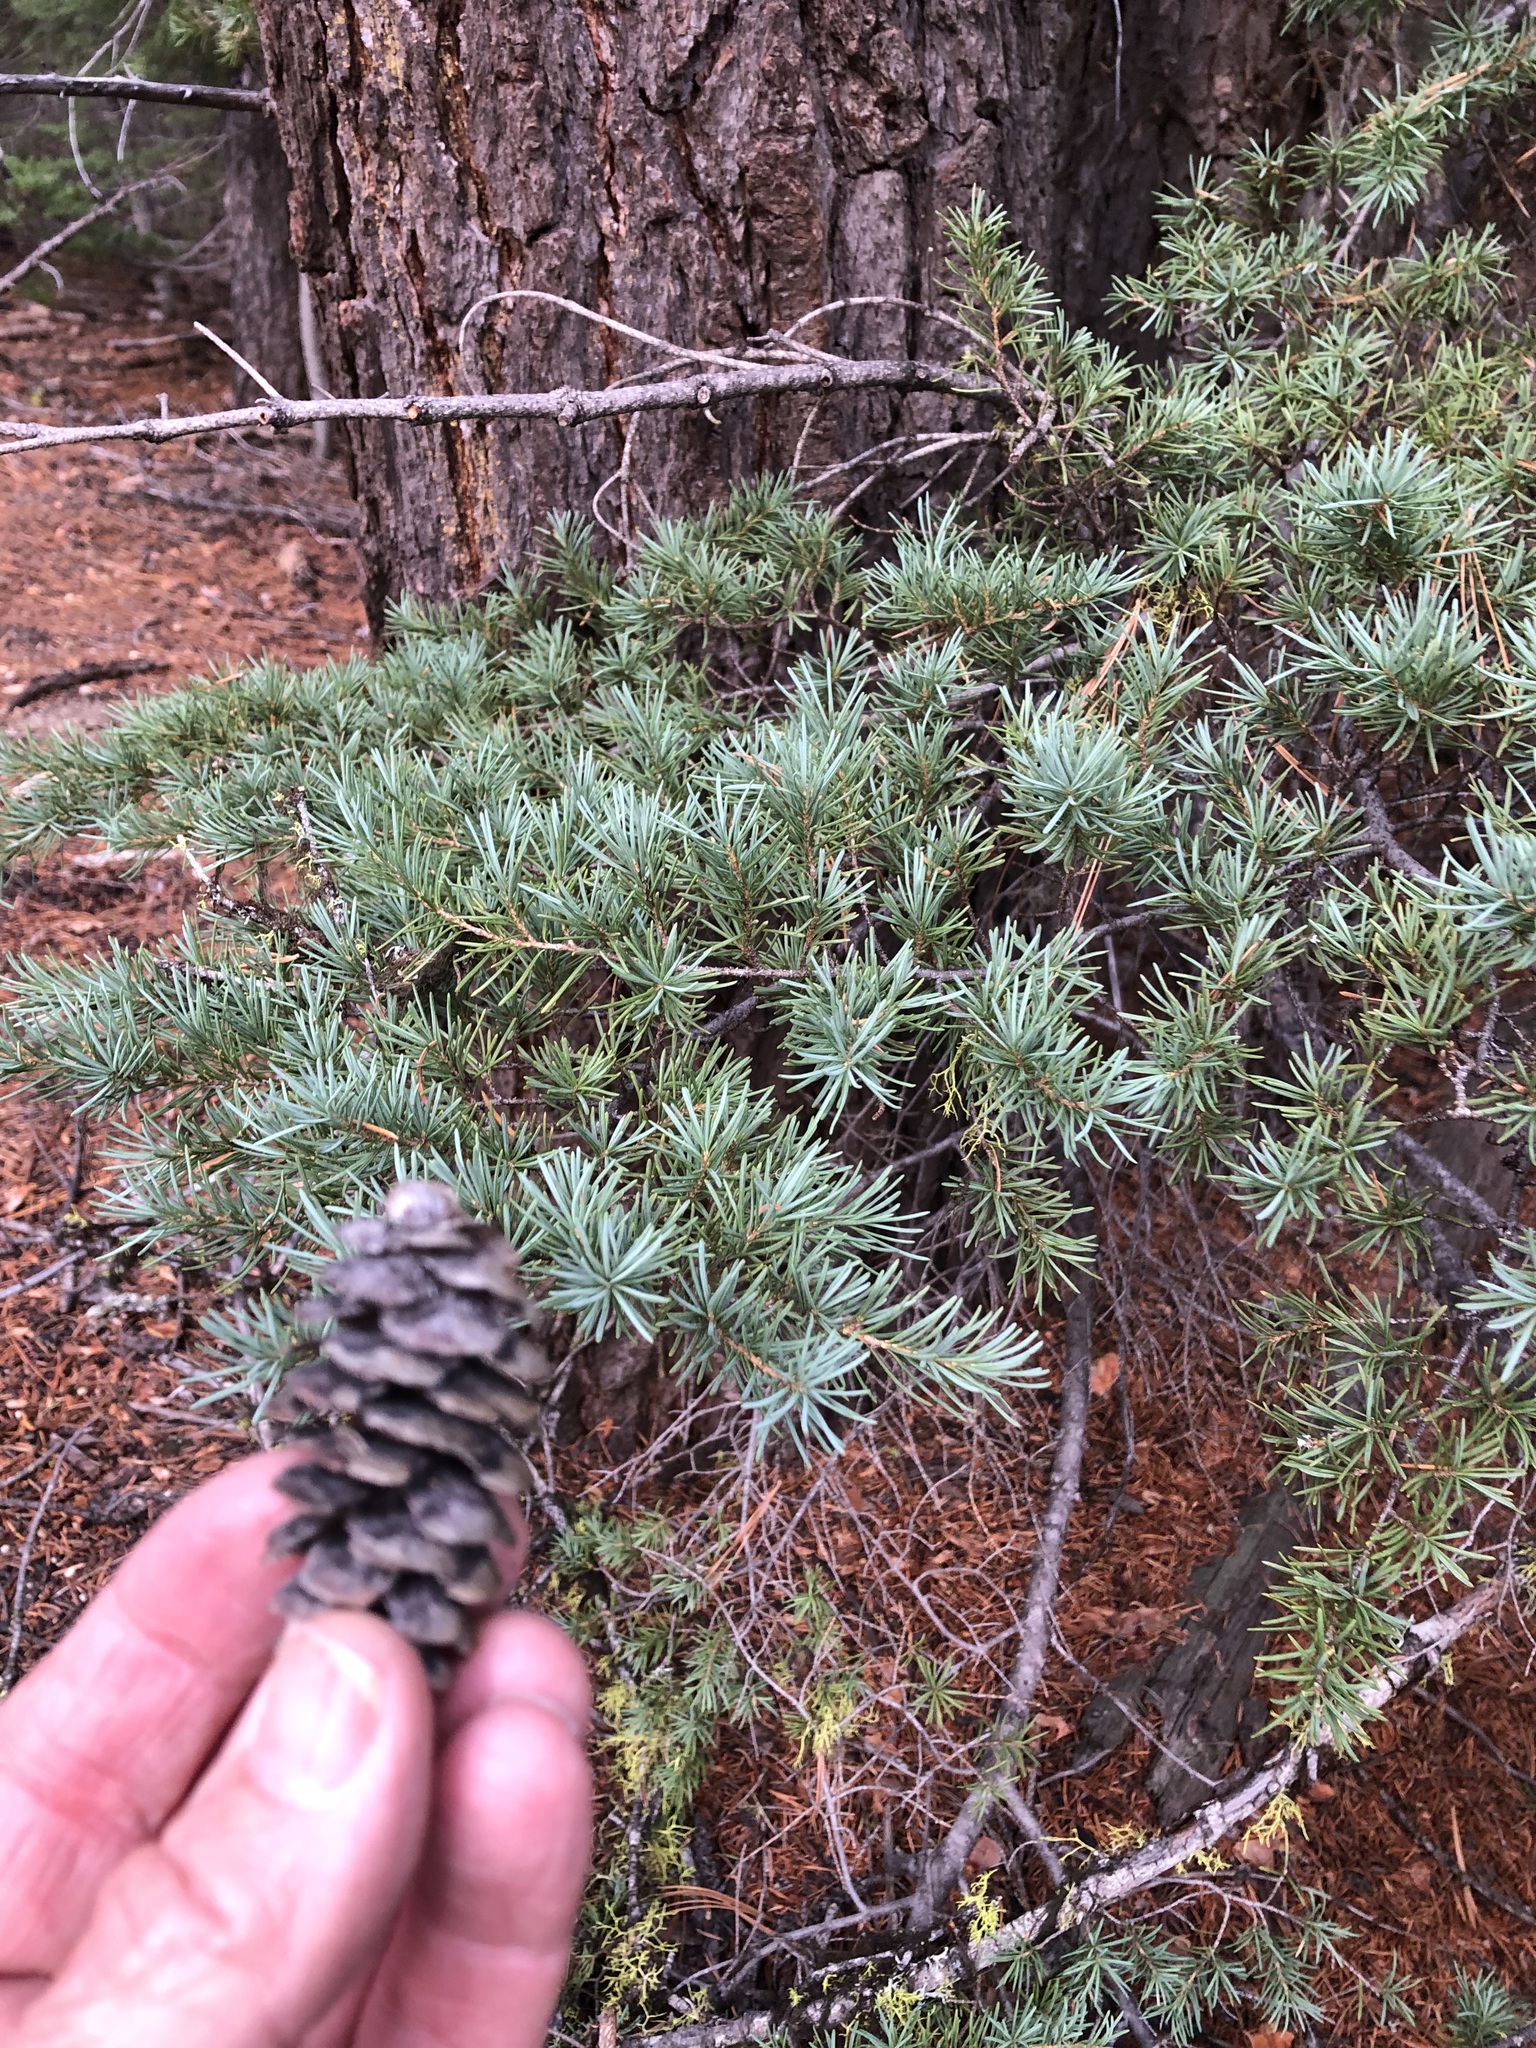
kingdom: Plantae
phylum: Tracheophyta
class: Pinopsida
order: Pinales
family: Pinaceae
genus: Tsuga
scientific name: Tsuga mertensiana
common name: Mountain hemlock
